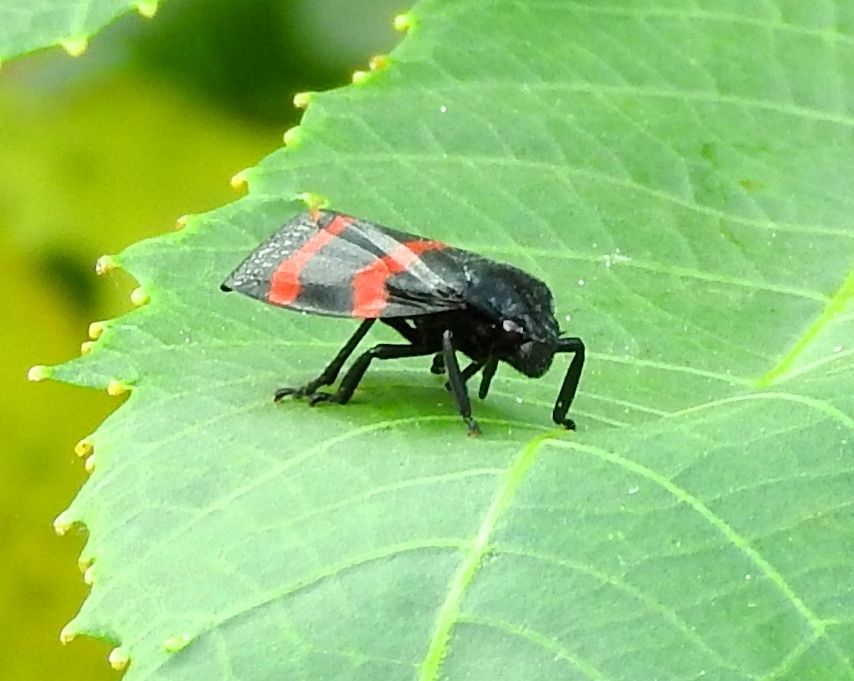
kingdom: Animalia
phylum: Arthropoda
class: Insecta
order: Hemiptera
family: Cercopidae
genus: Huaina
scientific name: Huaina inca
